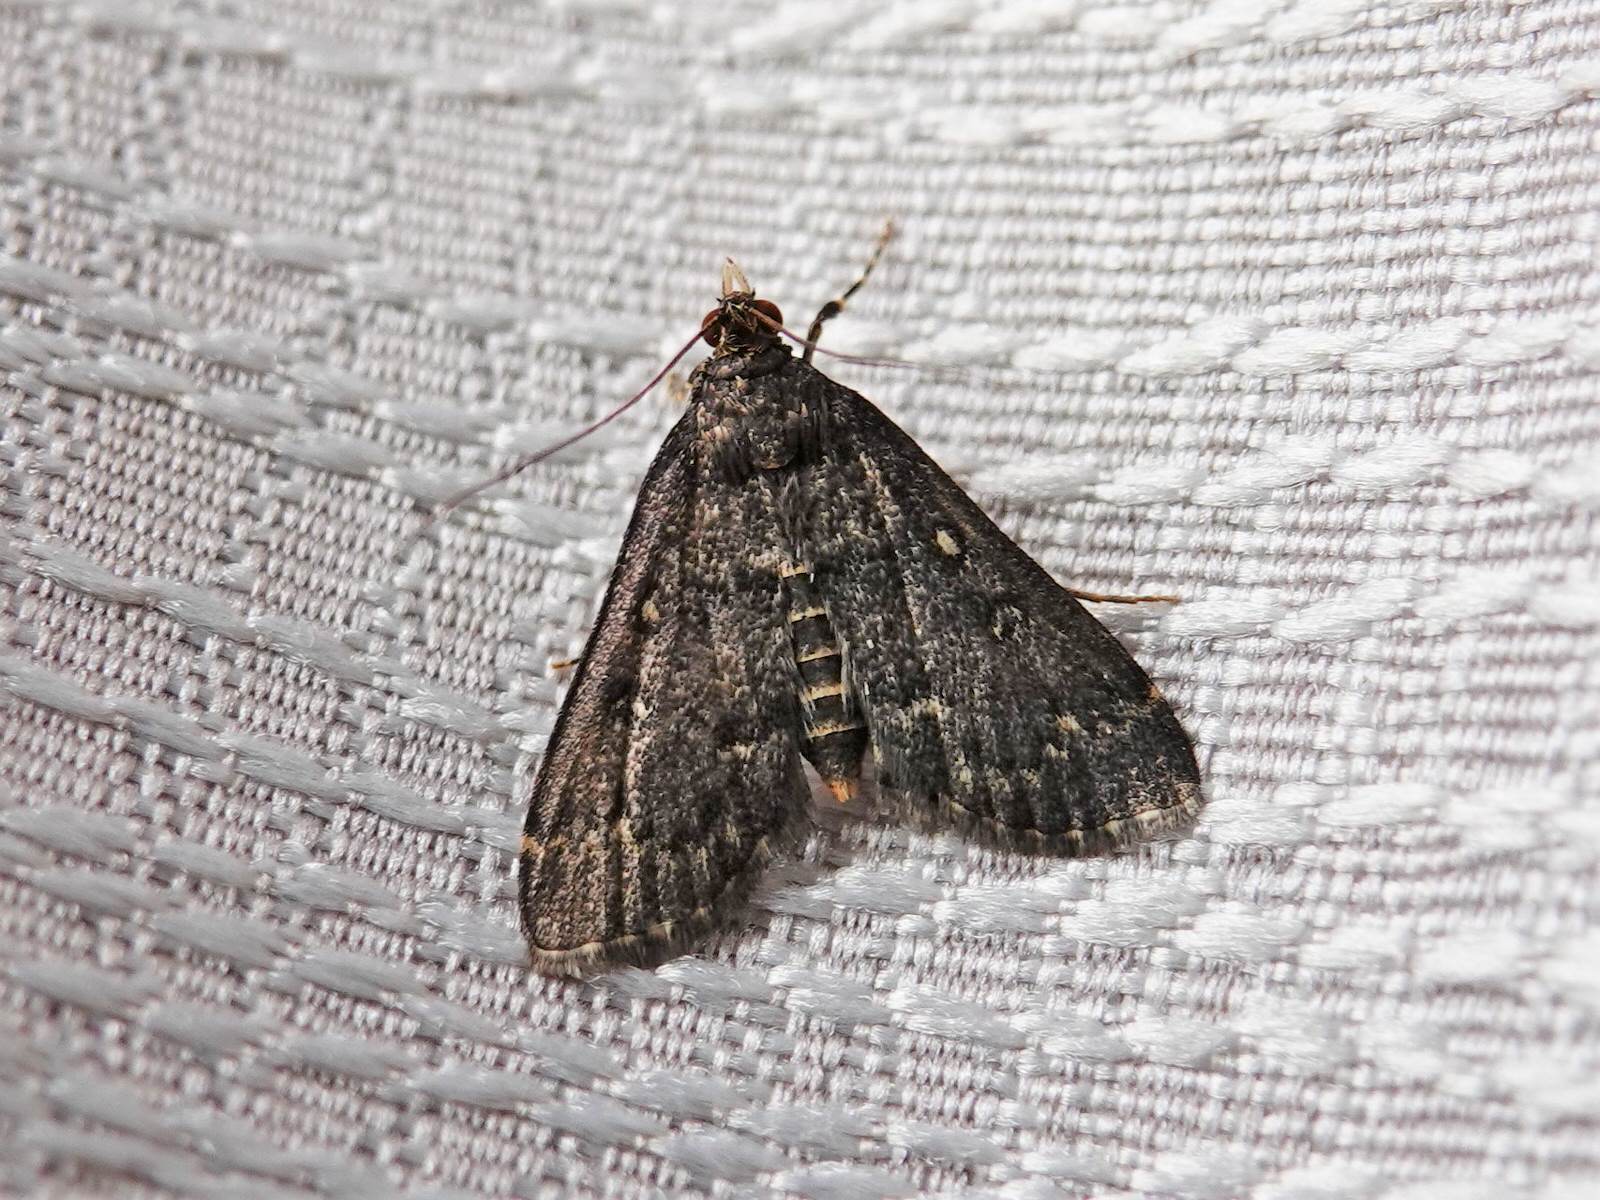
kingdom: Animalia
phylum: Arthropoda
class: Insecta
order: Lepidoptera
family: Crambidae
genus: Loxostege
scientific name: Loxostege Proternia philocapna
